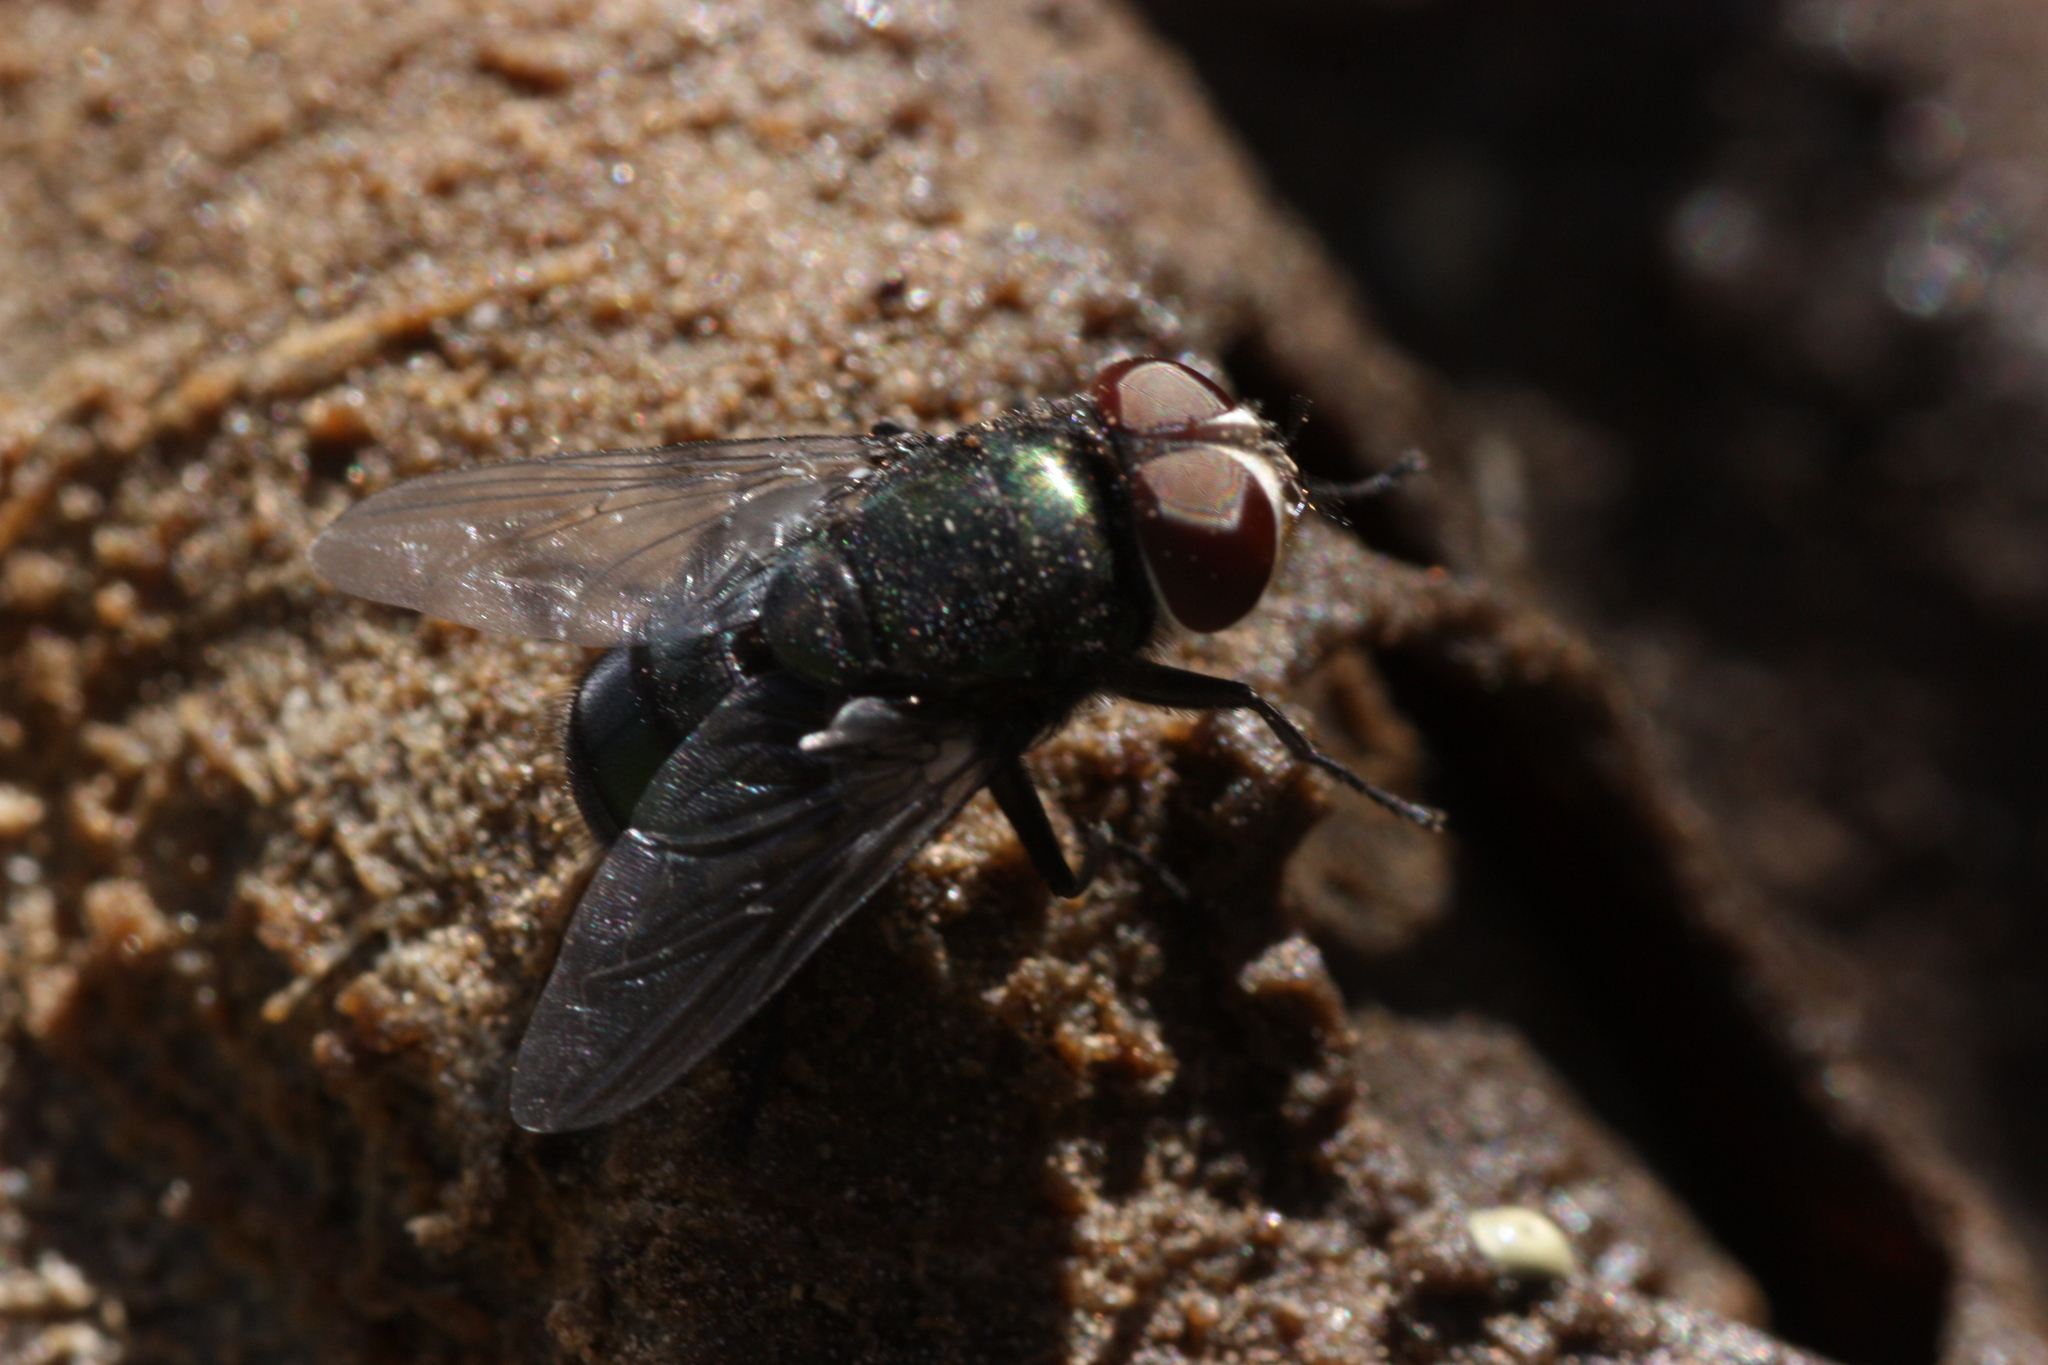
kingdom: Animalia
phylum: Arthropoda
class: Insecta
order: Diptera
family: Calliphoridae
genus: Chrysomya
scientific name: Chrysomya rufifacies
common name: Blow fly
